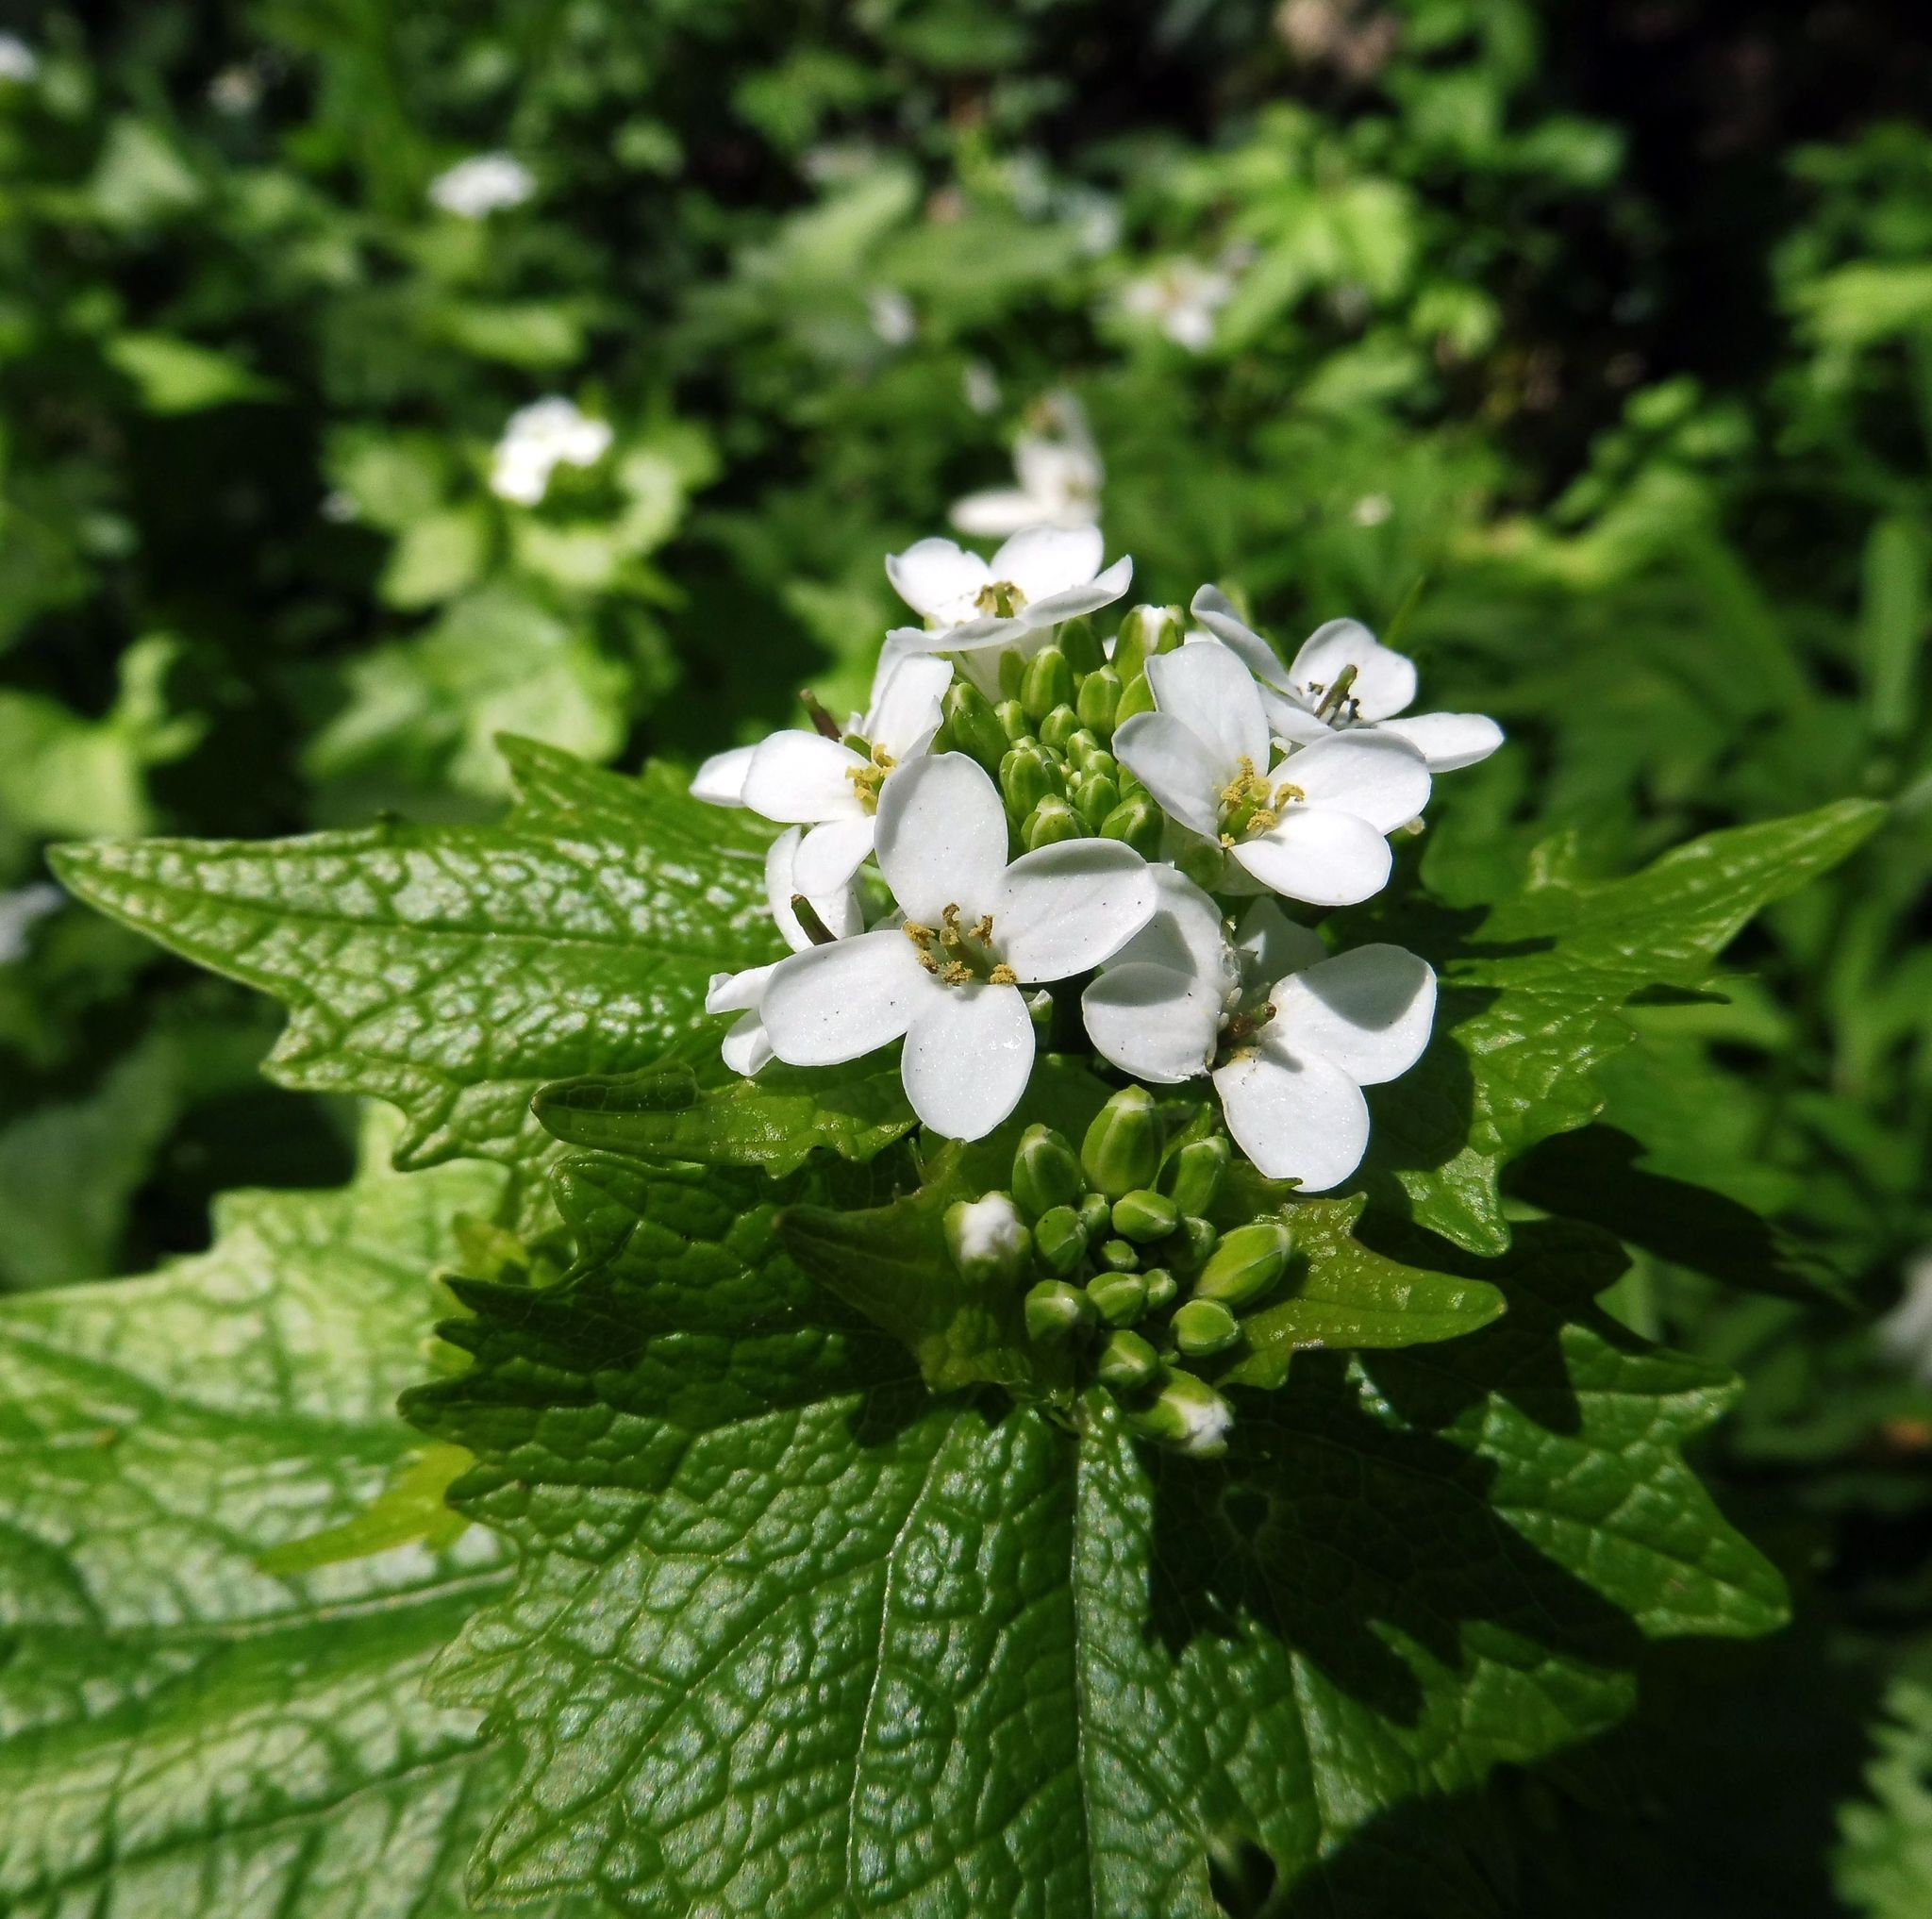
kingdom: Plantae
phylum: Tracheophyta
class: Magnoliopsida
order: Brassicales
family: Brassicaceae
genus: Alliaria
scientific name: Alliaria petiolata
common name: Garlic mustard
